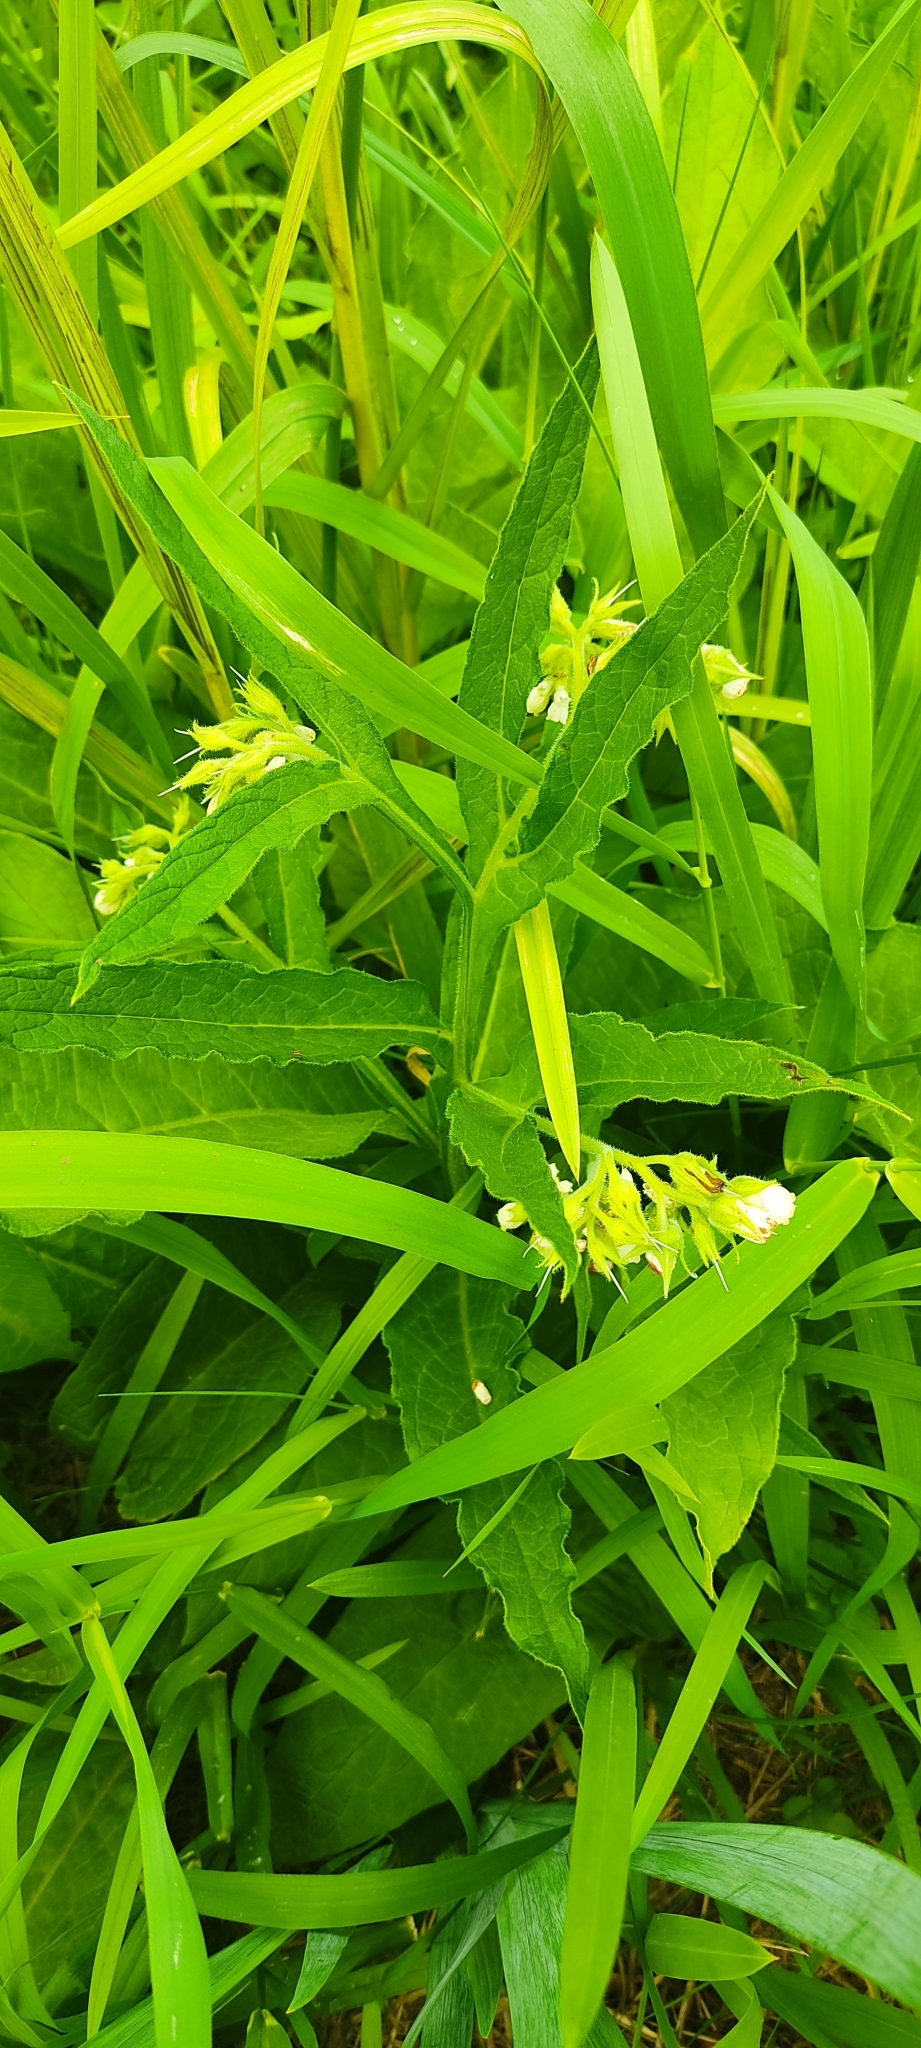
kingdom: Plantae
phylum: Tracheophyta
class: Magnoliopsida
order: Boraginales
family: Boraginaceae
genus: Symphytum
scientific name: Symphytum officinale
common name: Common comfrey
